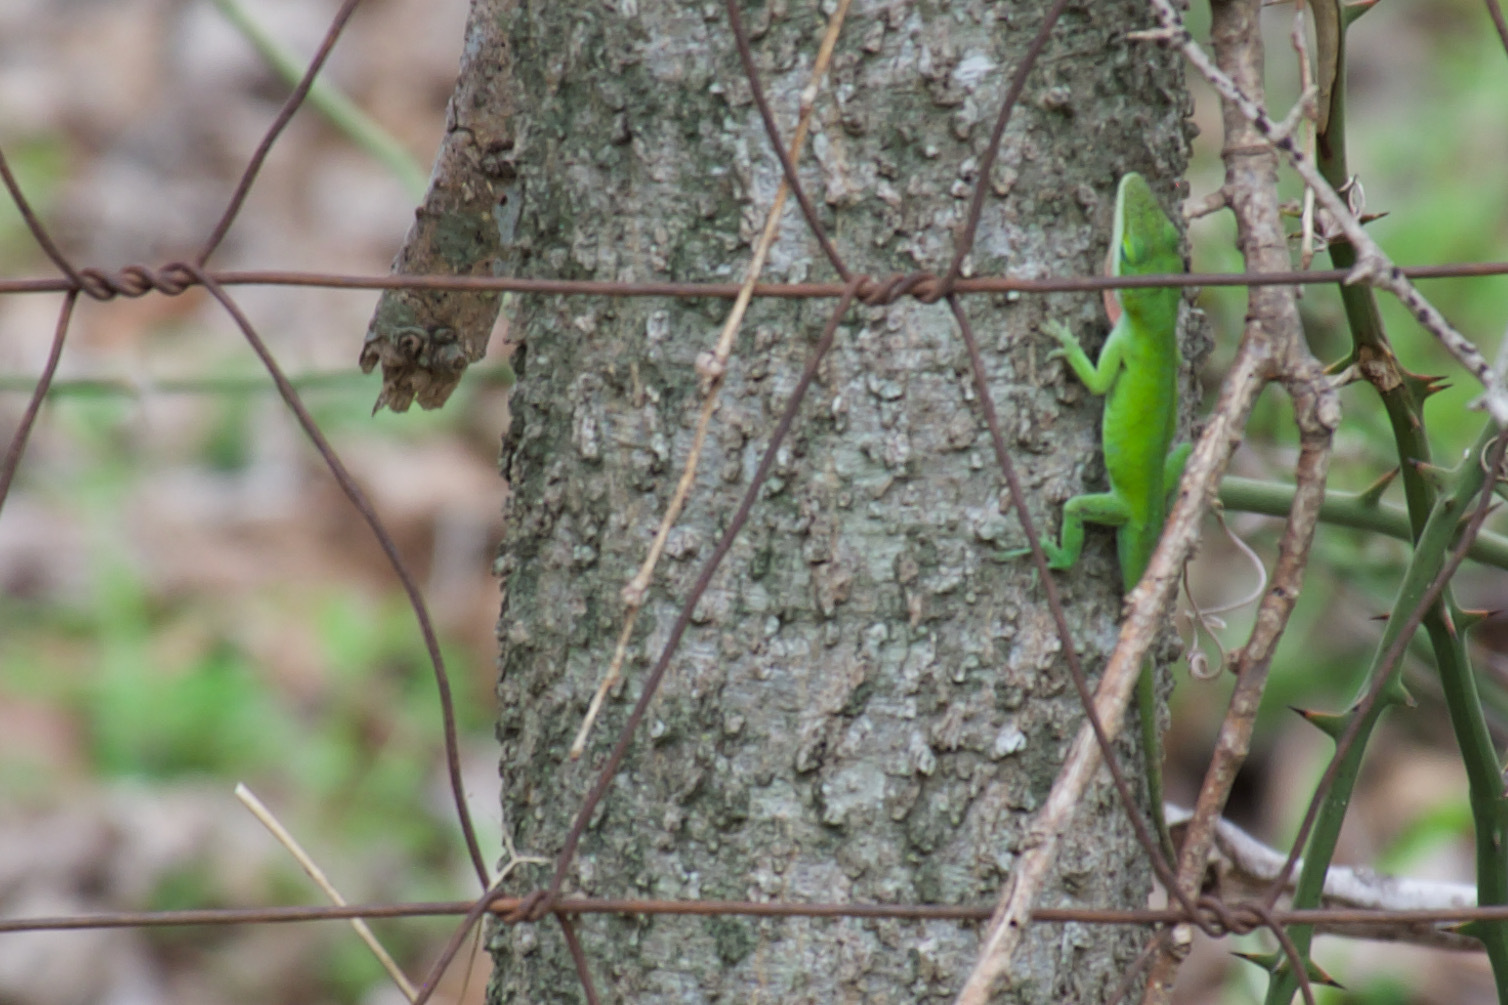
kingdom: Animalia
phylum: Chordata
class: Squamata
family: Dactyloidae
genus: Anolis
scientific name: Anolis carolinensis
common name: Green anole
